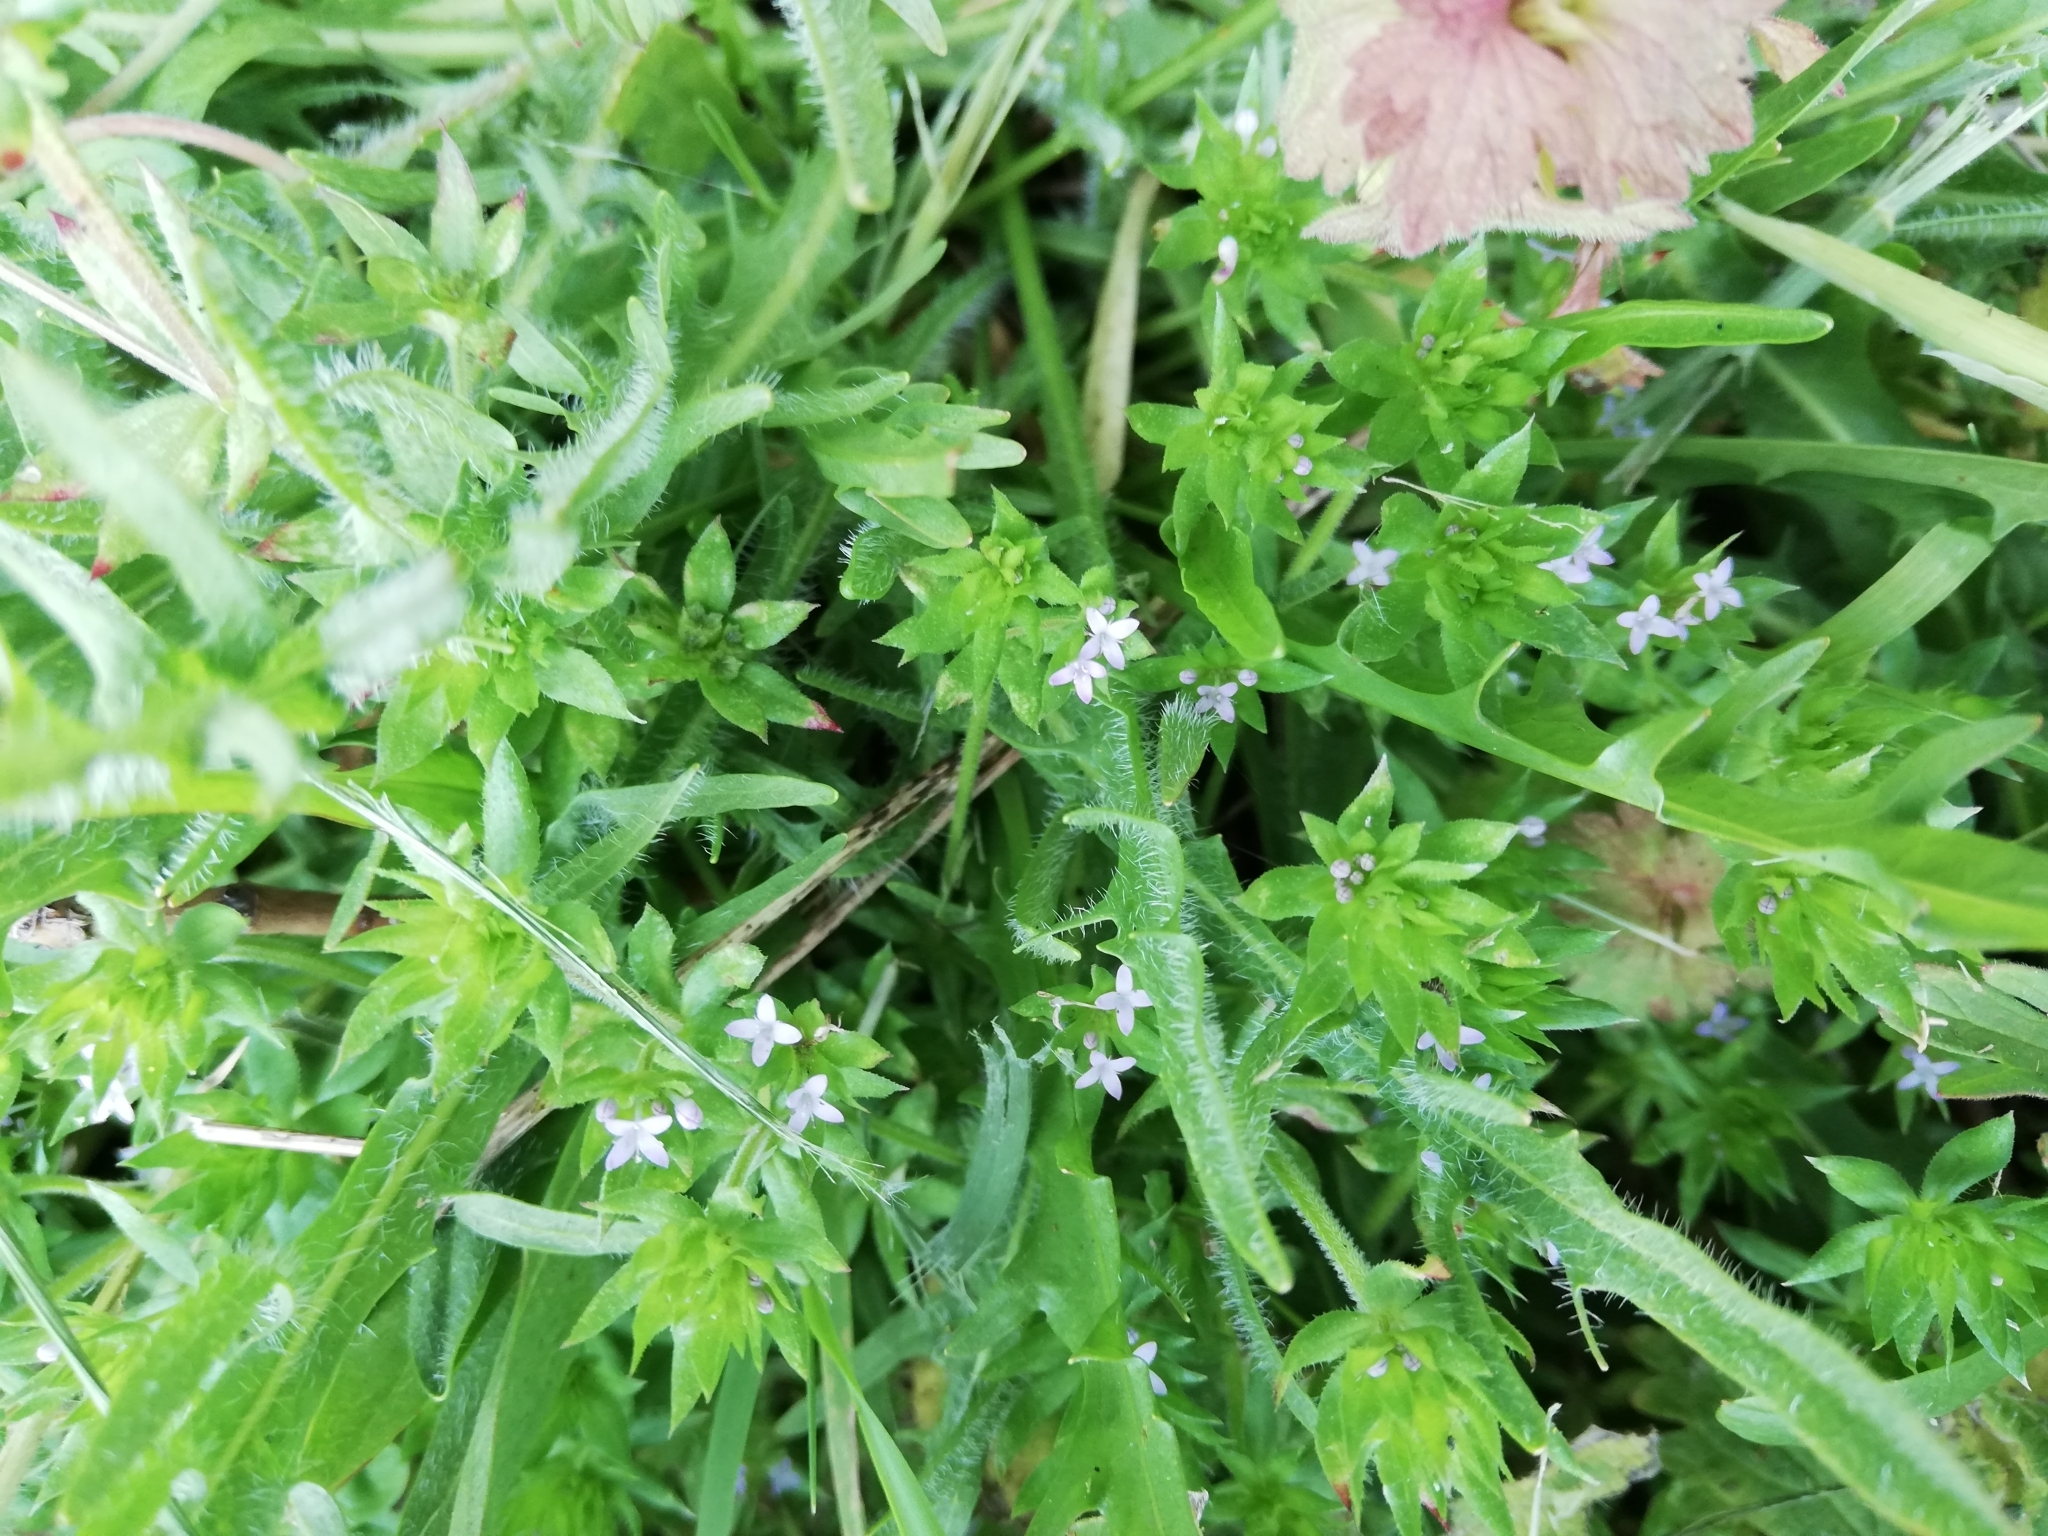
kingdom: Plantae
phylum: Tracheophyta
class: Magnoliopsida
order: Gentianales
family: Rubiaceae
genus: Sherardia
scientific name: Sherardia arvensis
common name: Field madder
